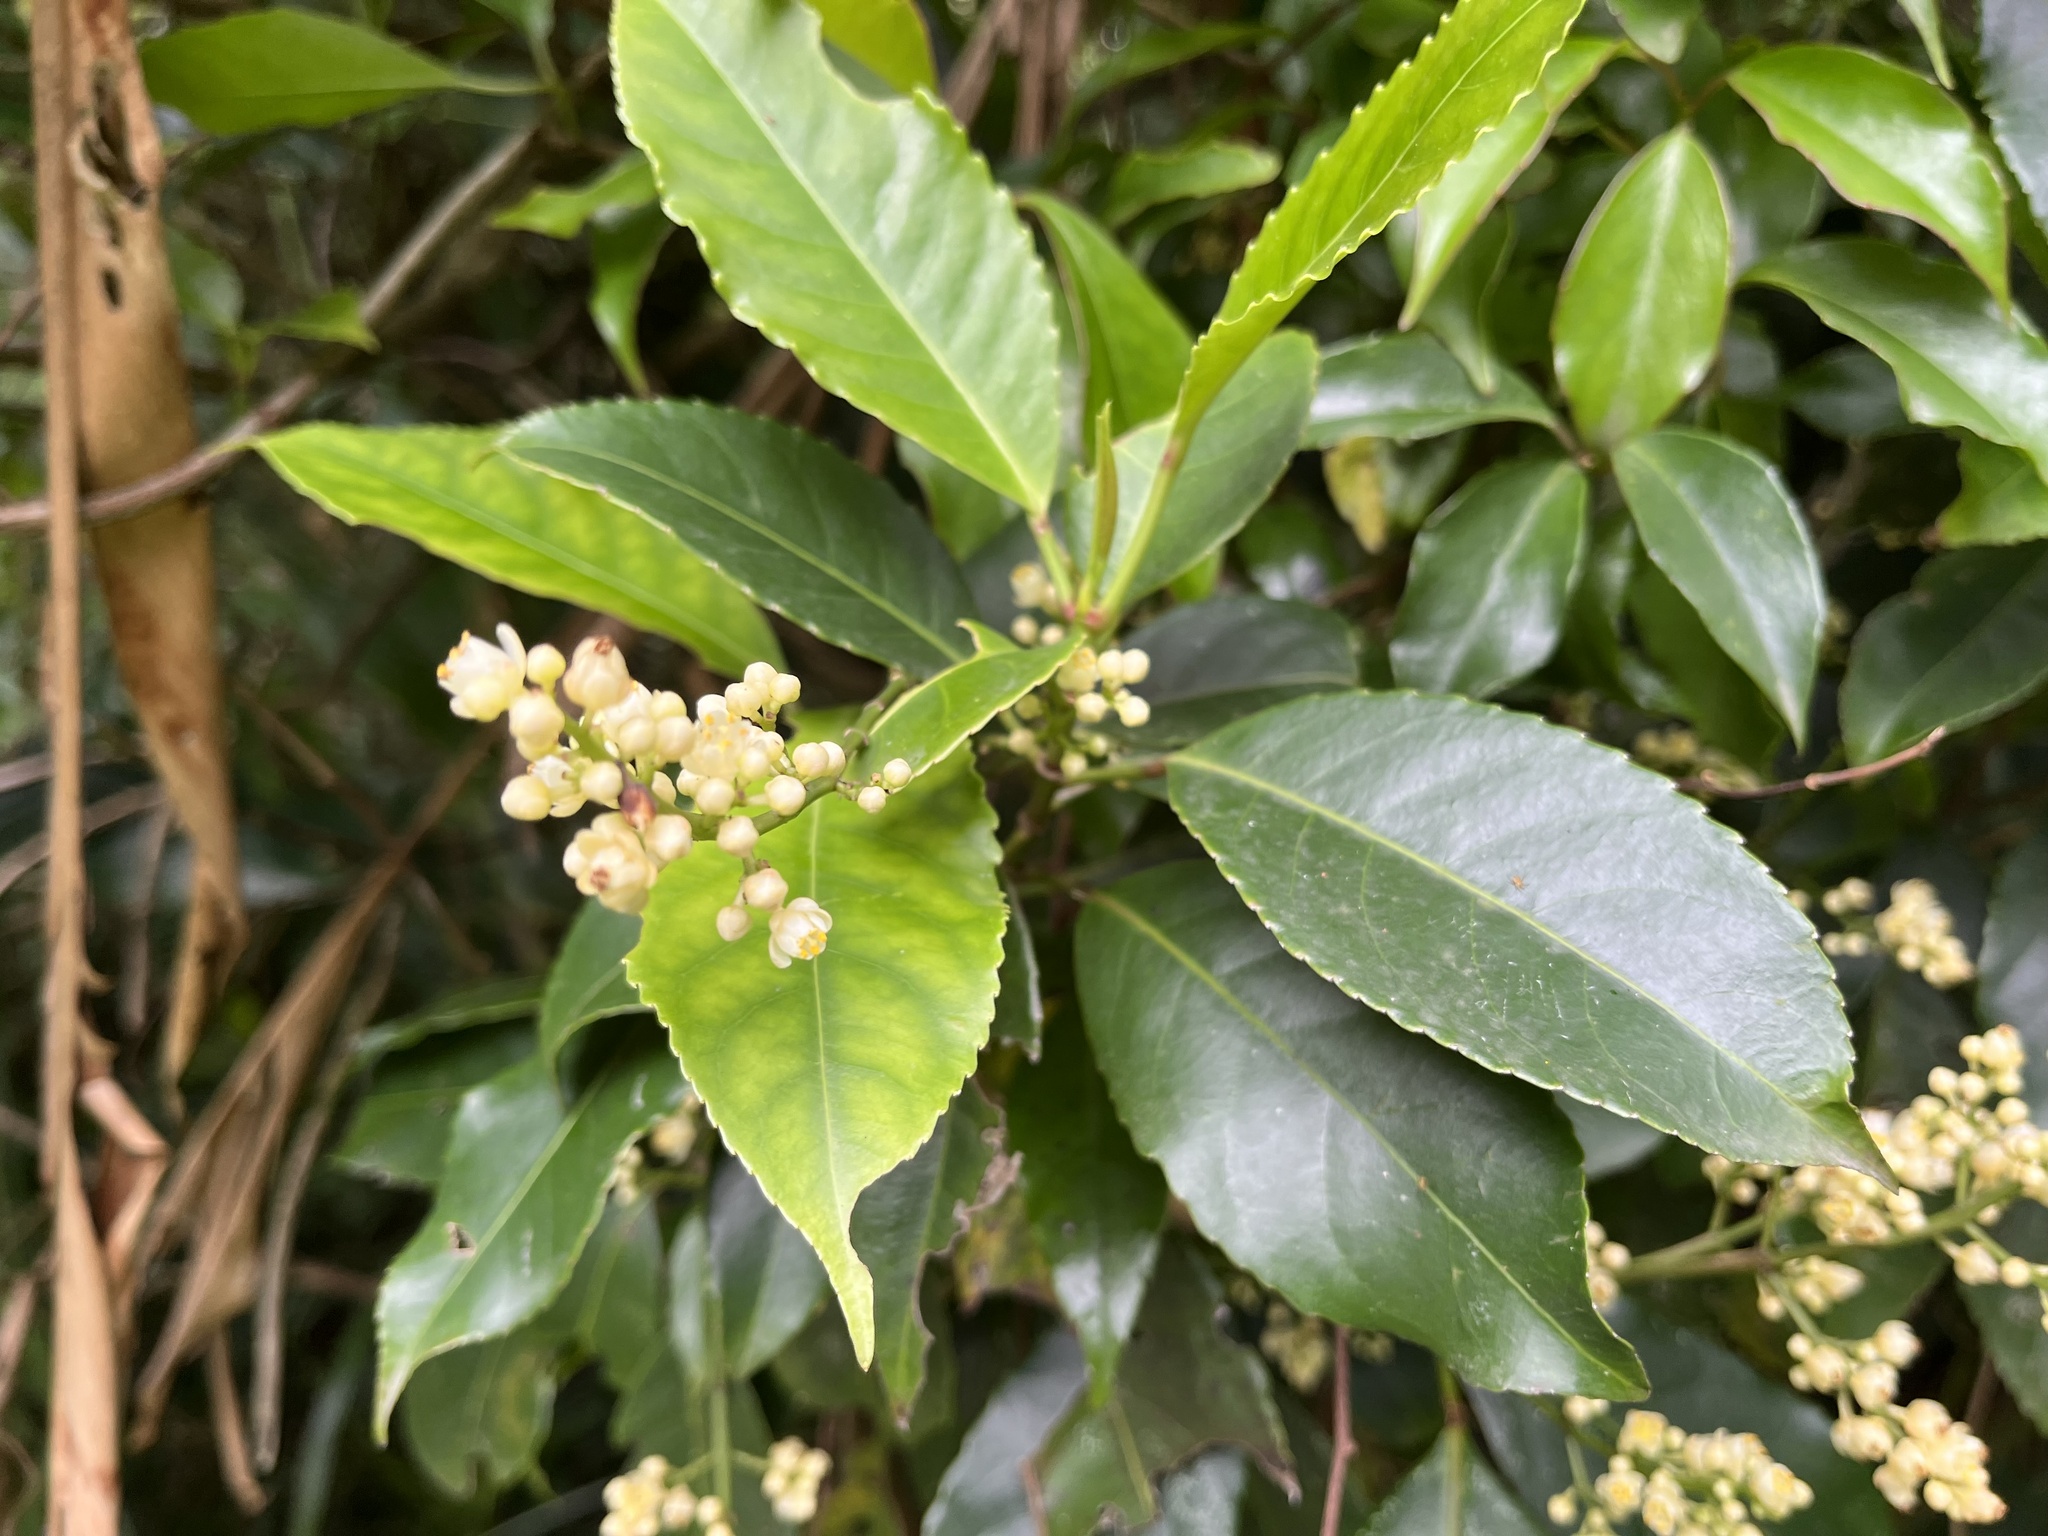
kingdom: Plantae
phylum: Tracheophyta
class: Magnoliopsida
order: Crossosomatales
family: Staphyleaceae
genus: Turpinia
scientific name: Turpinia formosana
